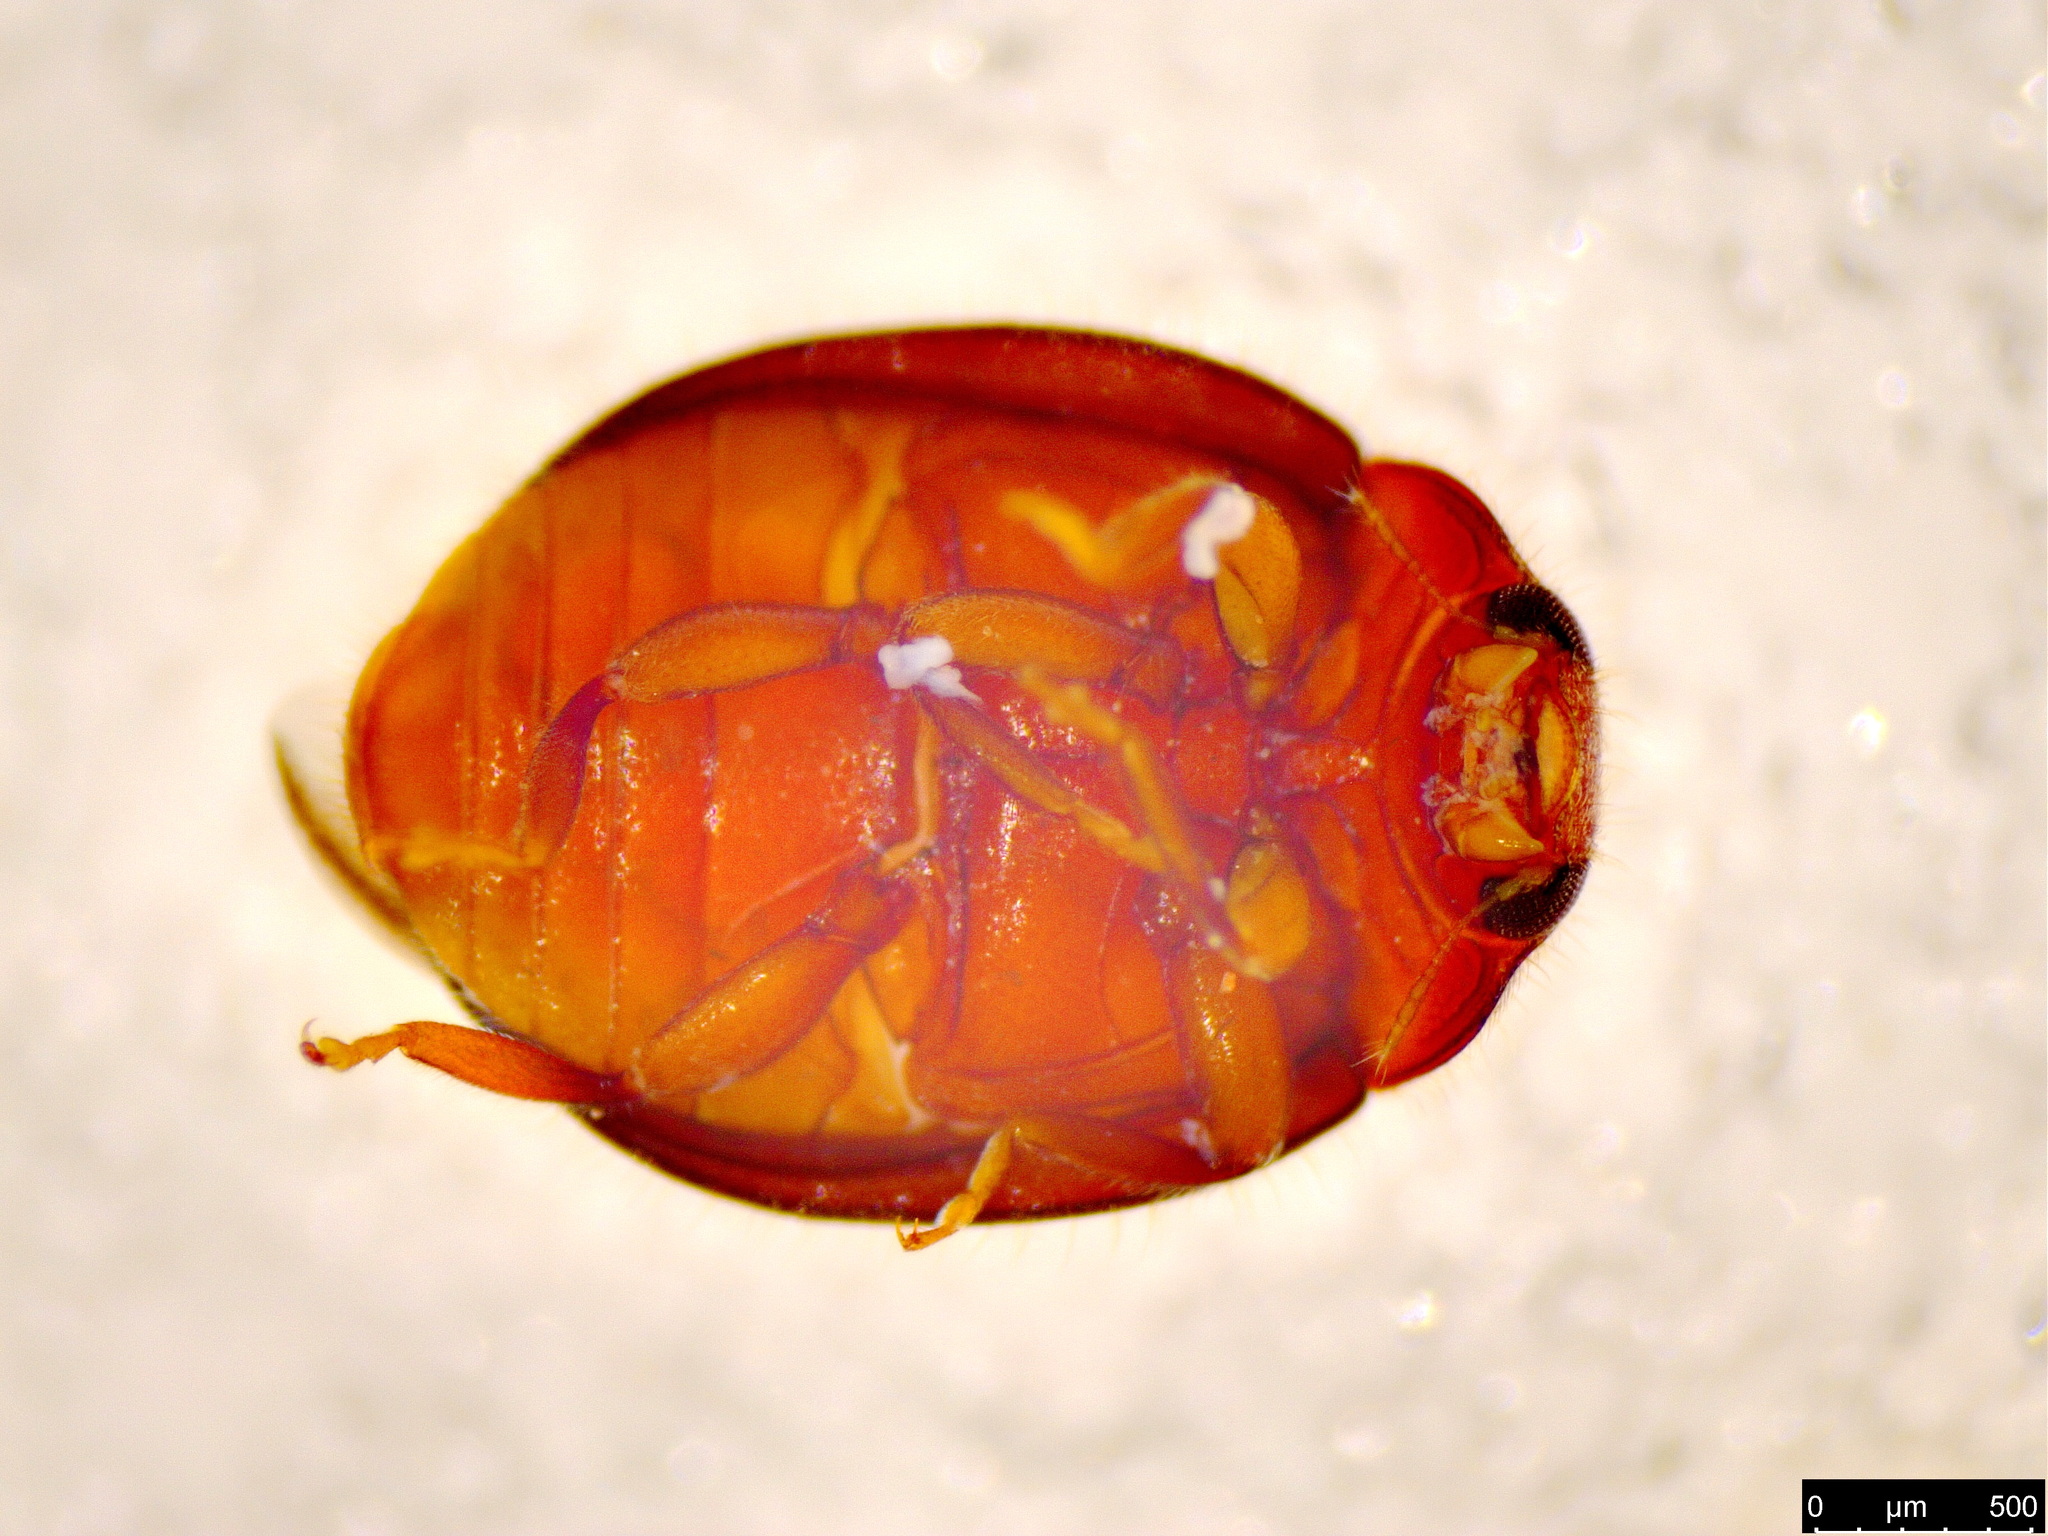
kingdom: Animalia
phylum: Arthropoda
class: Insecta
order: Coleoptera
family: Coccinellidae
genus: Rhyzobius
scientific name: Rhyzobius lophanthae
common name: Scale-eating ladybird beetle
